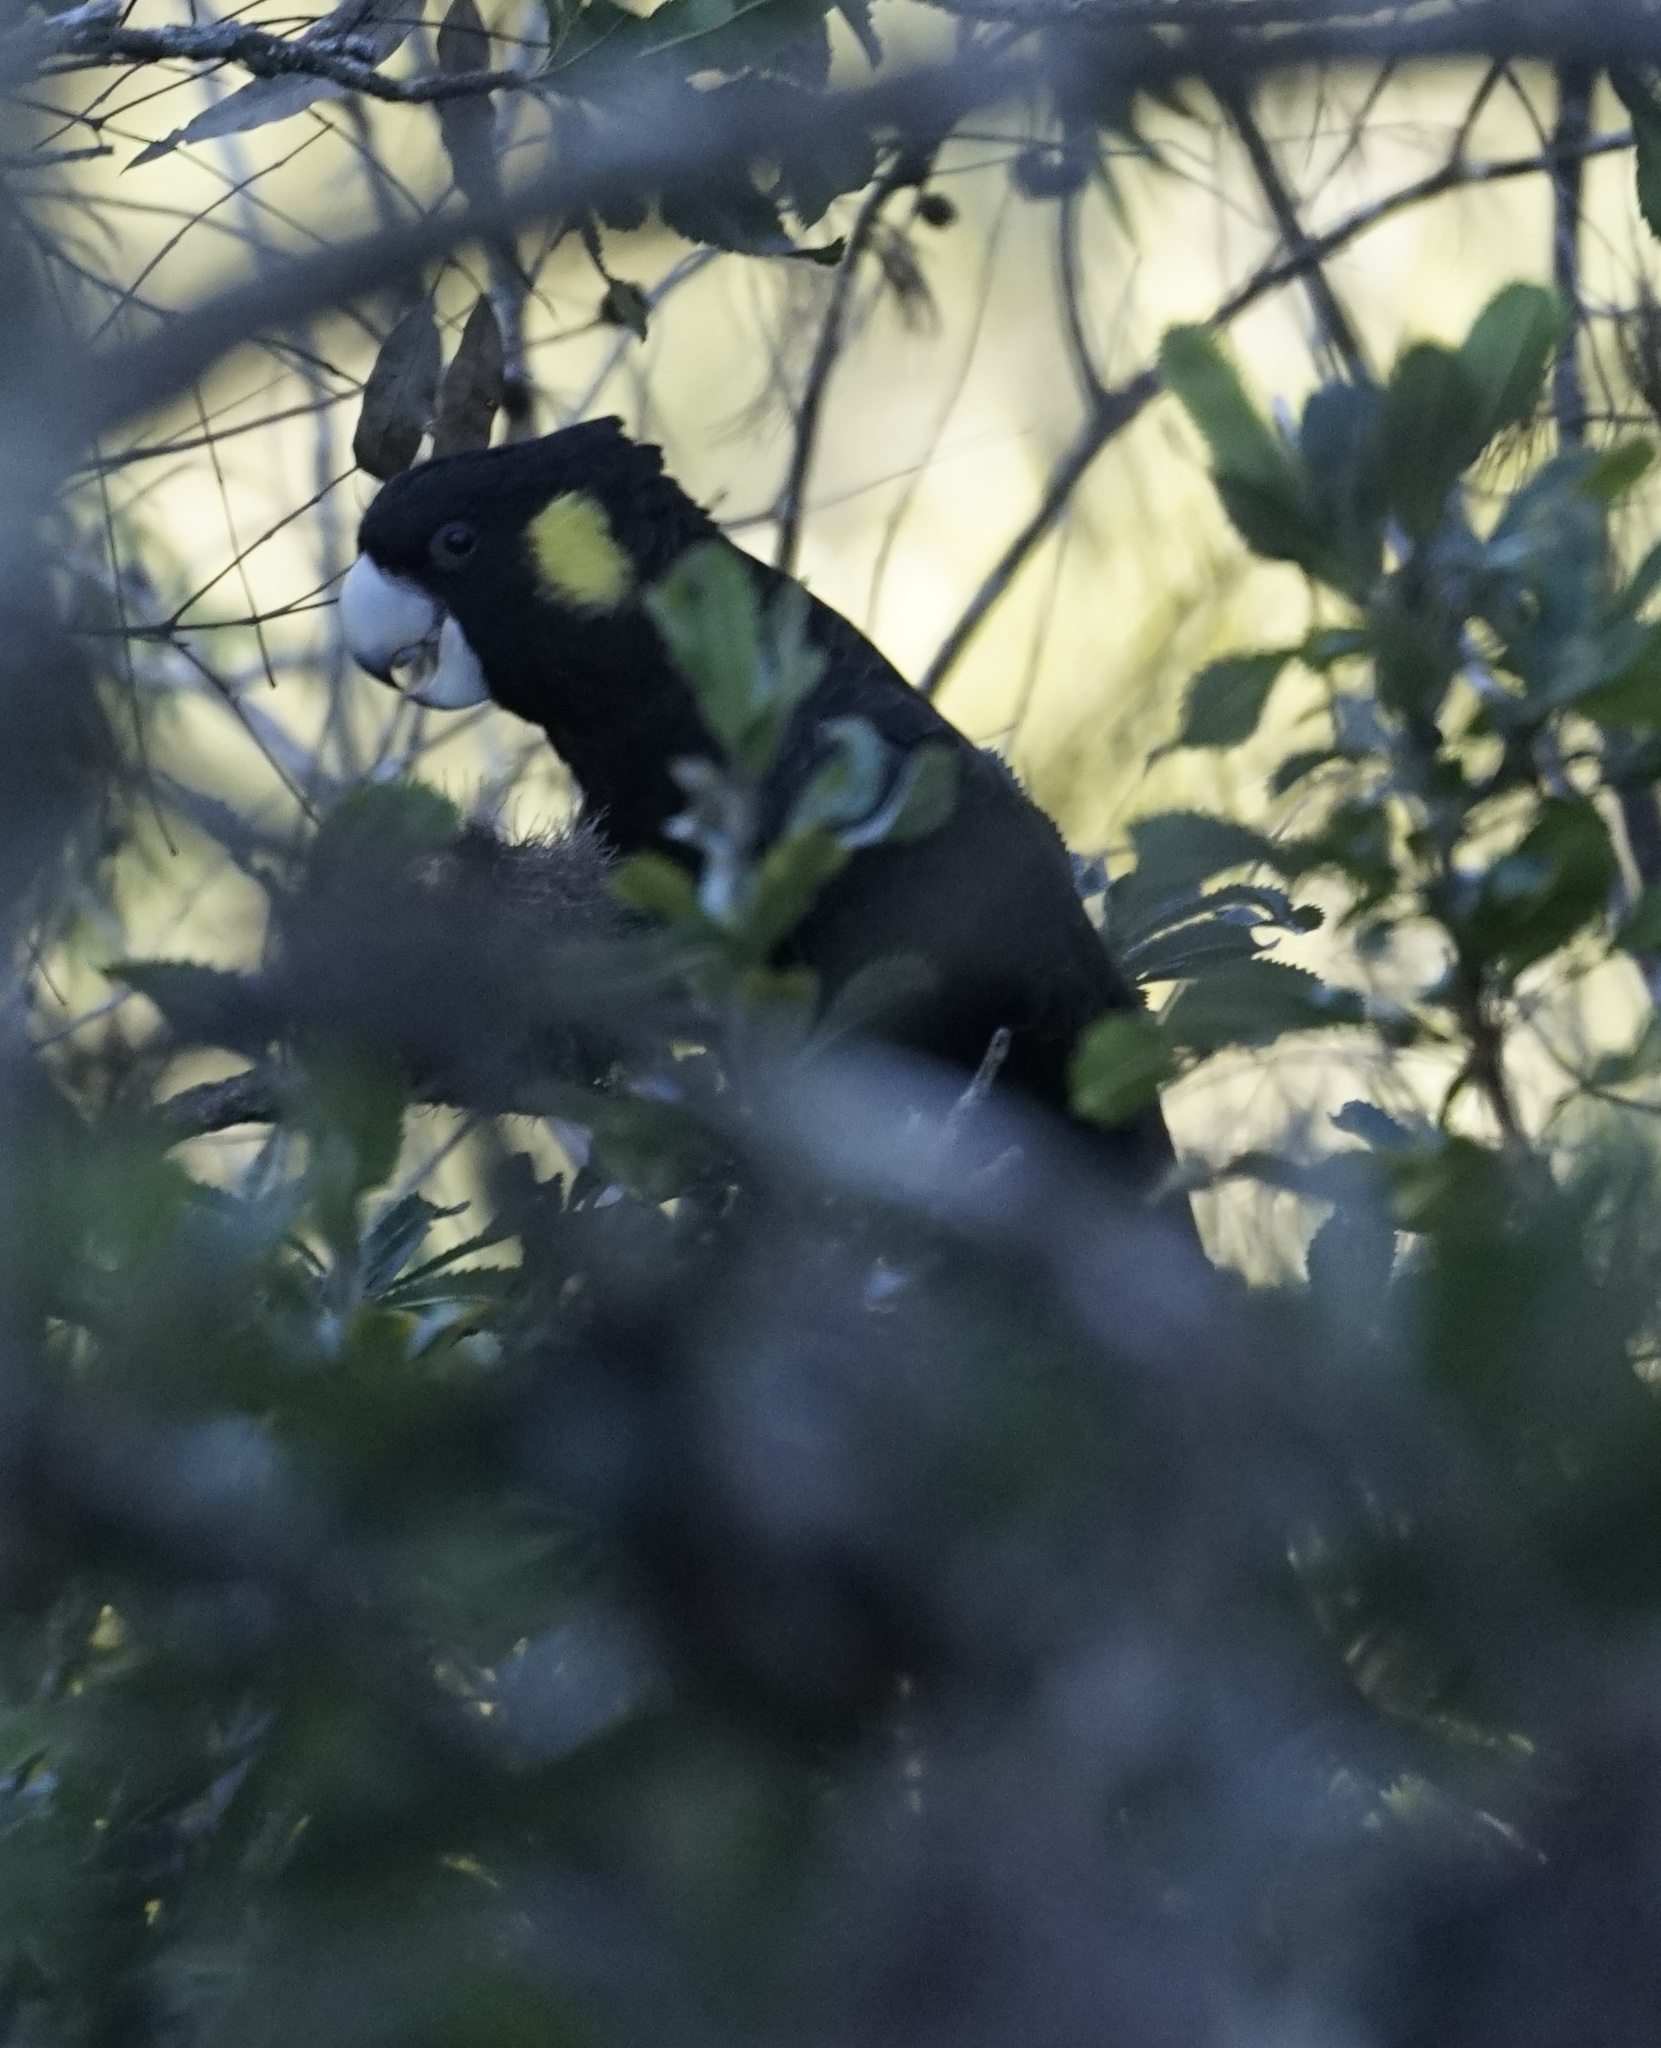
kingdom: Animalia
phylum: Chordata
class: Aves
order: Psittaciformes
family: Cacatuidae
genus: Zanda
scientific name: Zanda funerea
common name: Yellow-tailed black-cockatoo
